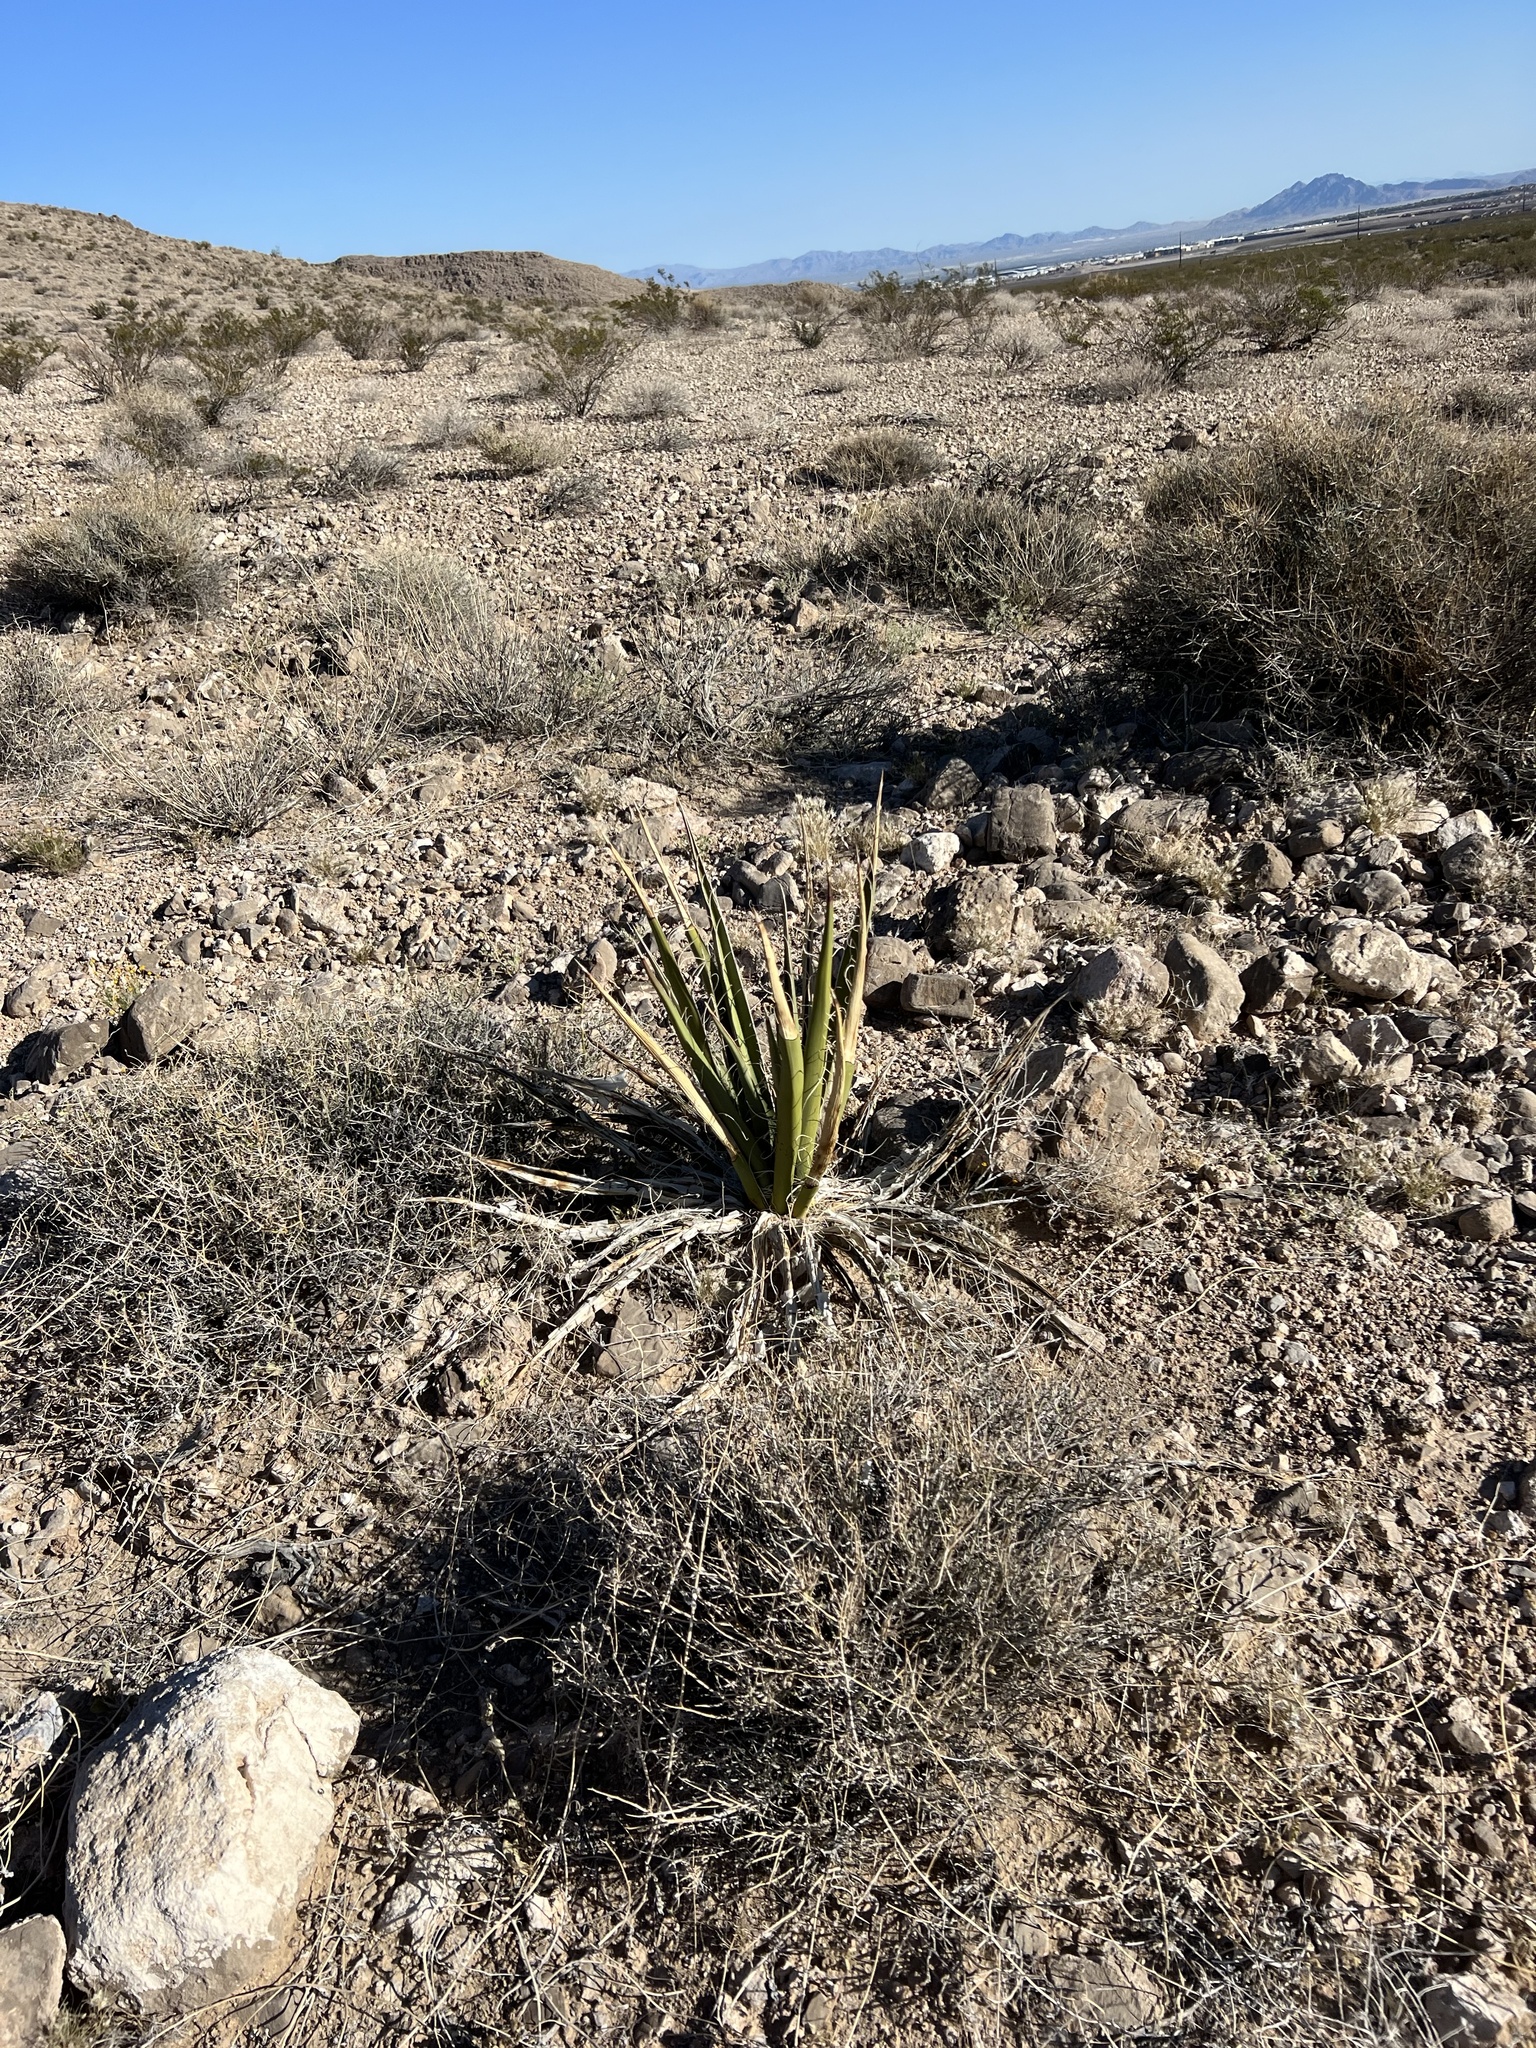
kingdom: Plantae
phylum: Tracheophyta
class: Liliopsida
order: Asparagales
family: Asparagaceae
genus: Yucca
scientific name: Yucca schidigera
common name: Mojave yucca
